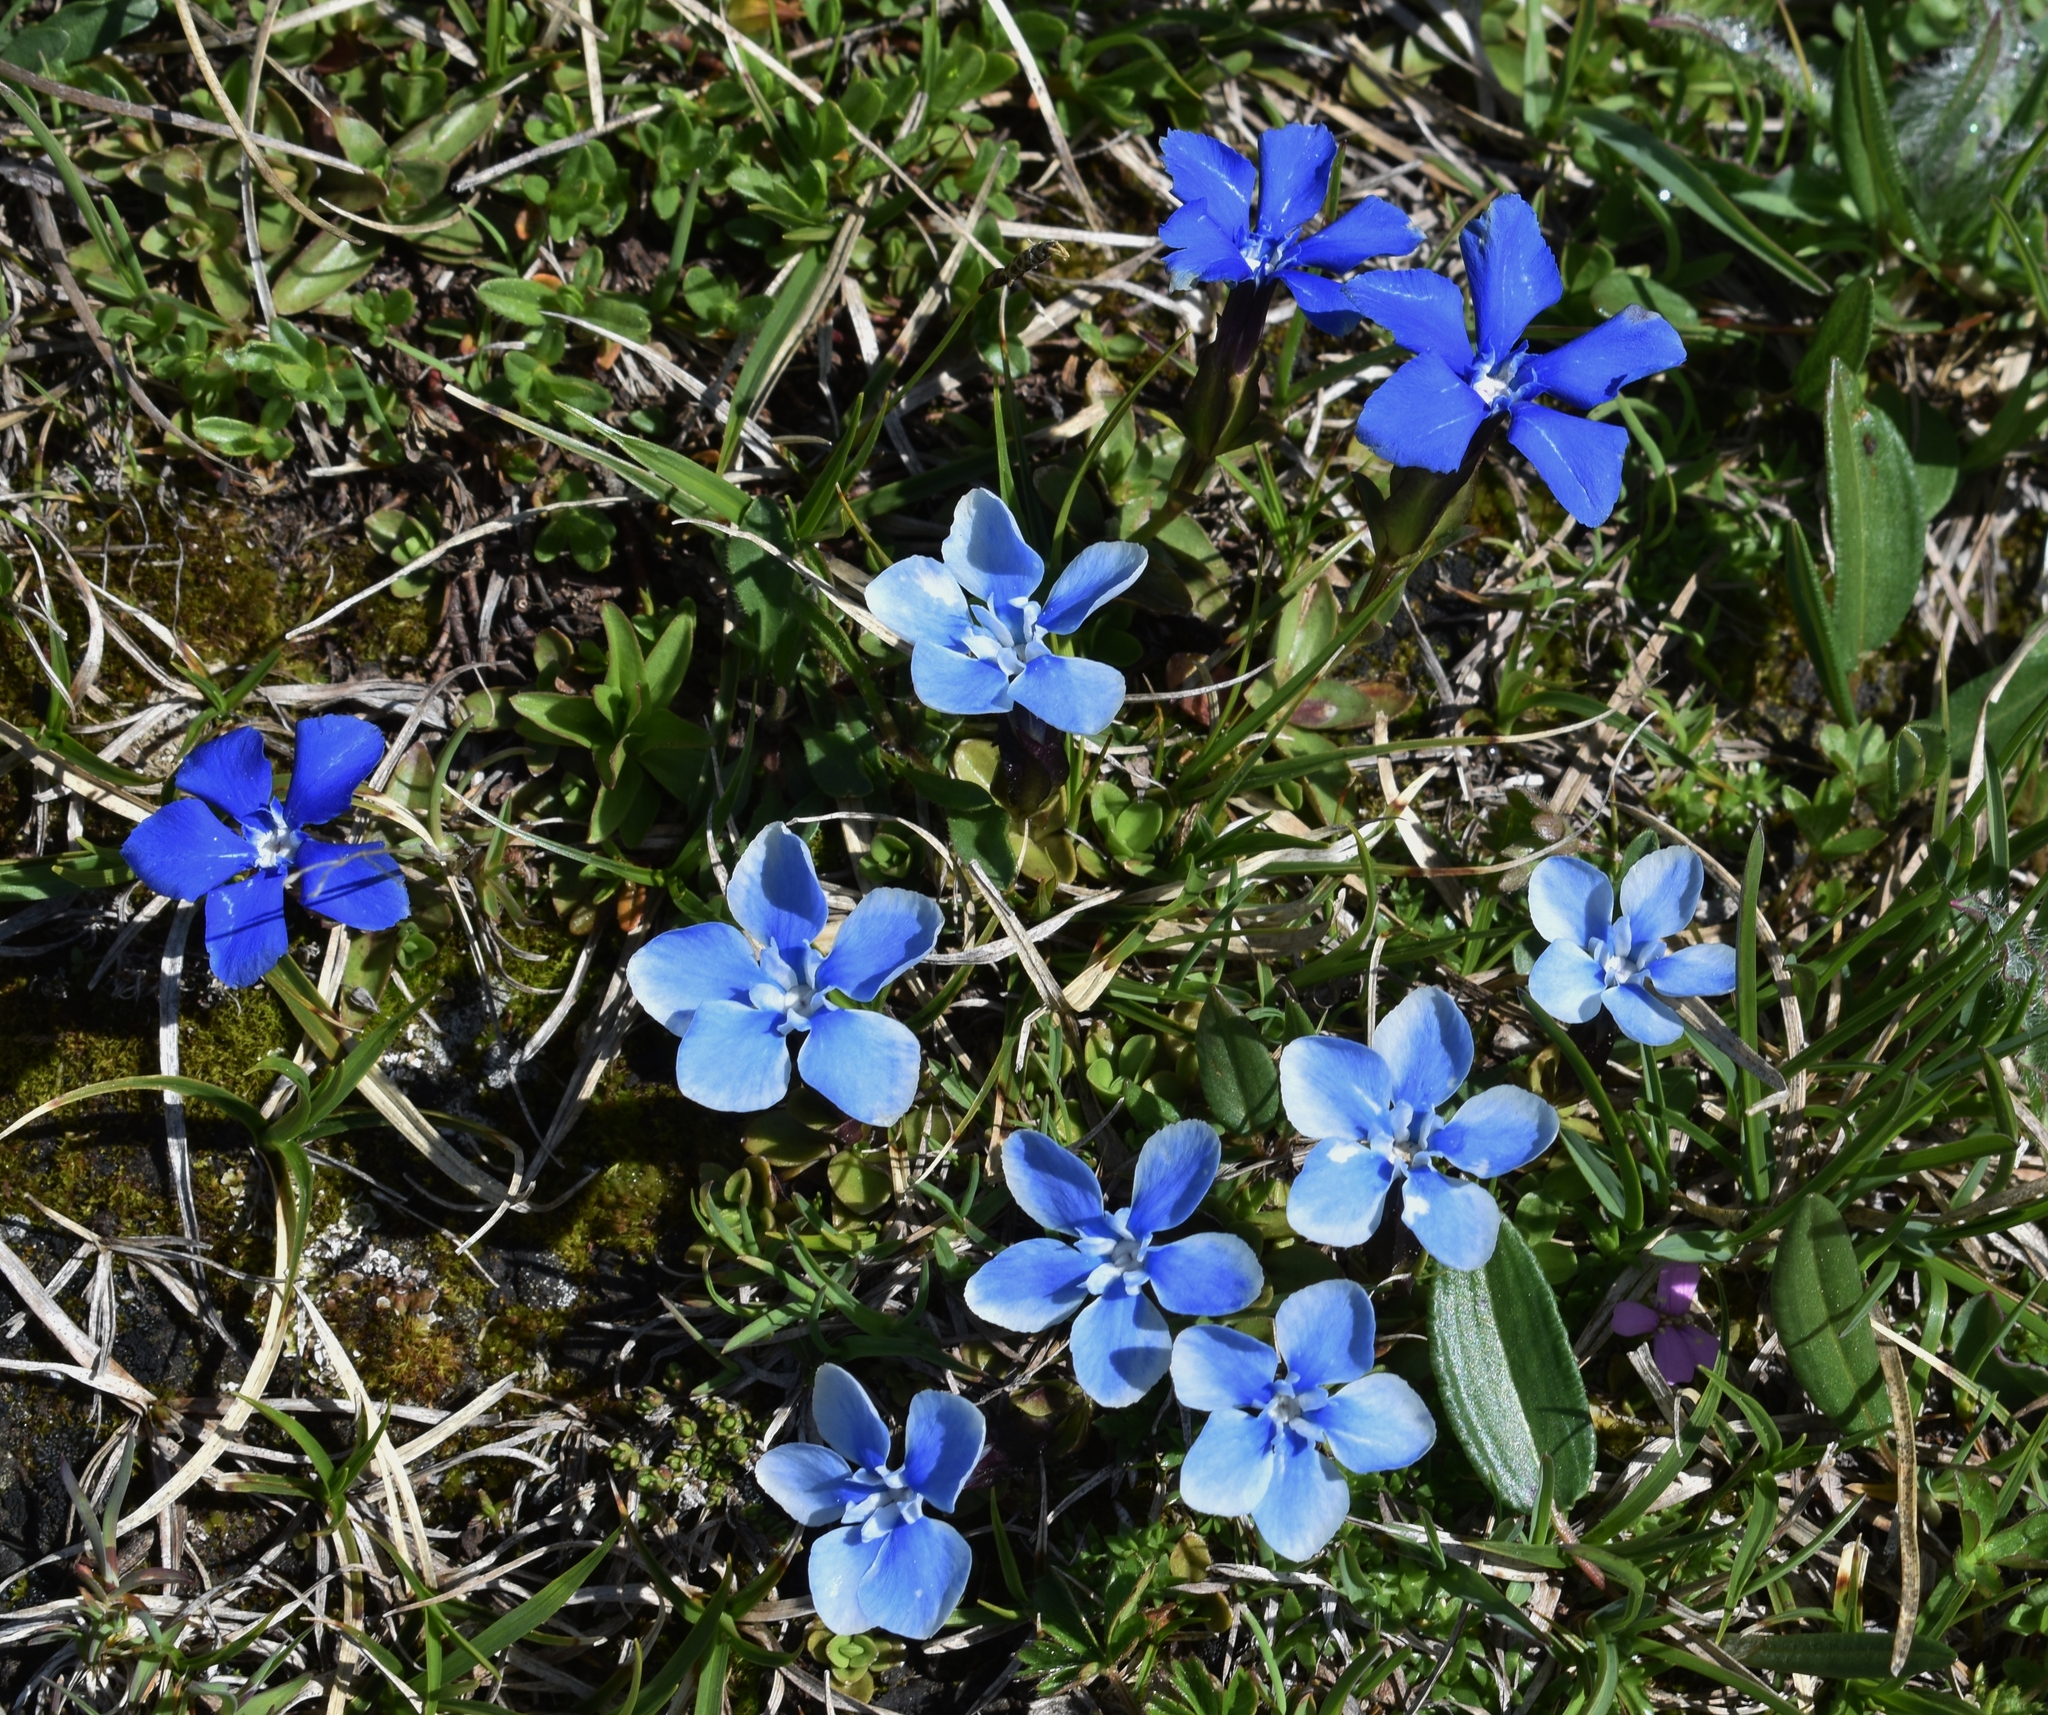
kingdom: Plantae
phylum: Tracheophyta
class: Magnoliopsida
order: Gentianales
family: Gentianaceae
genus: Gentiana
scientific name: Gentiana orbicularis
